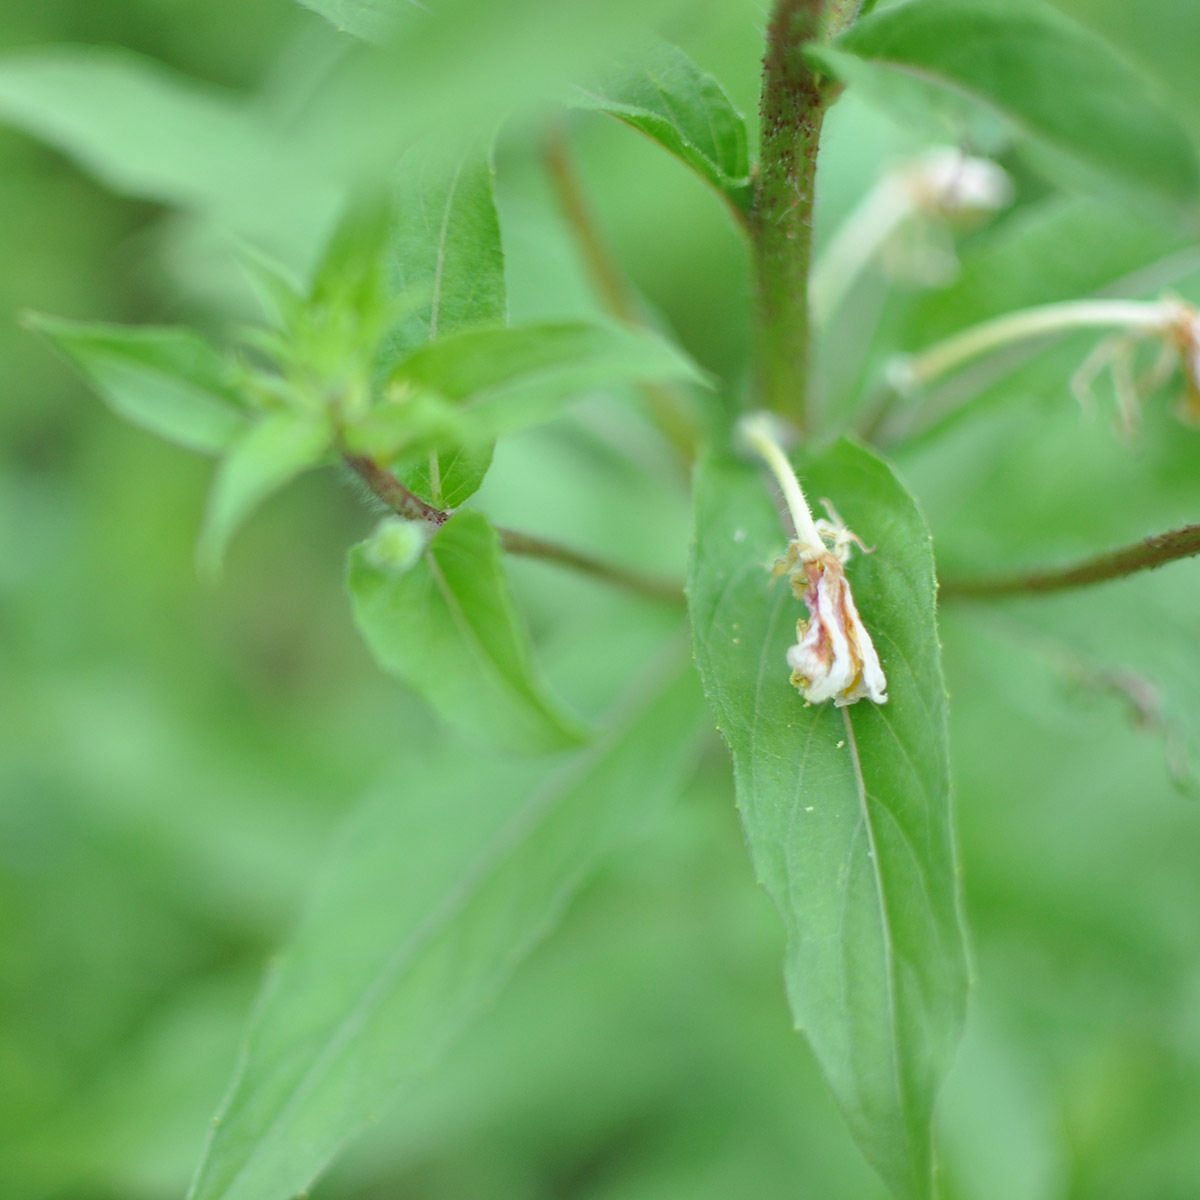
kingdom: Plantae
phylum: Tracheophyta
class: Magnoliopsida
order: Myrtales
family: Onagraceae
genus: Oenothera
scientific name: Oenothera rubricaulis
